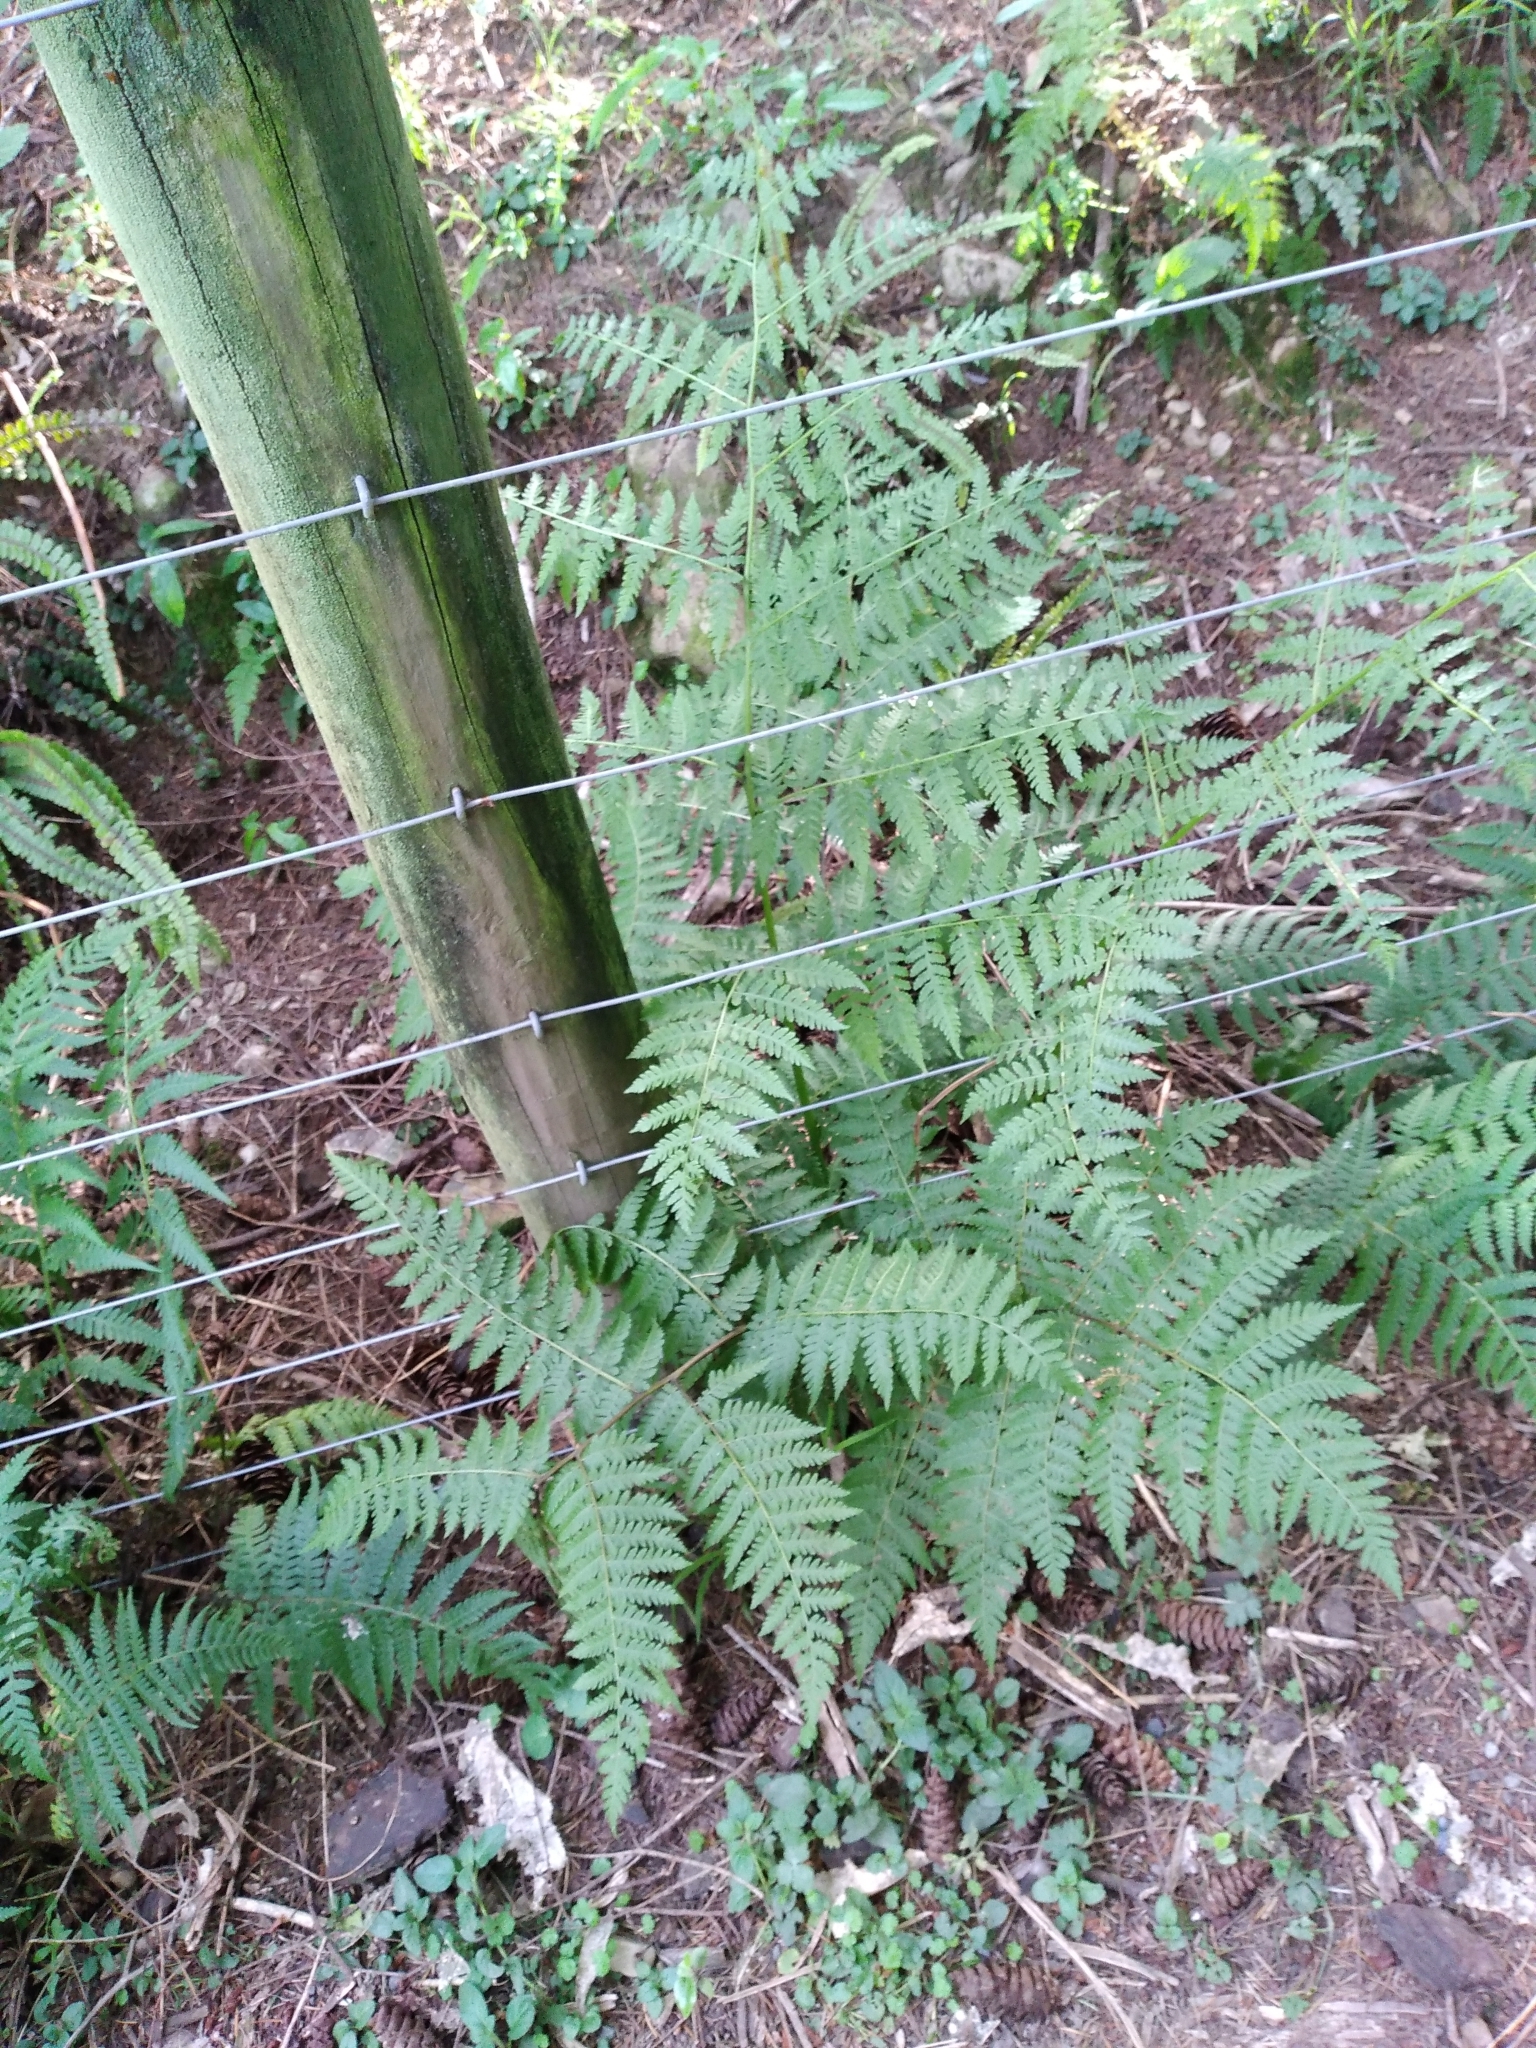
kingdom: Plantae
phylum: Tracheophyta
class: Polypodiopsida
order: Polypodiales
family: Athyriaceae
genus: Diplazium
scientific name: Diplazium australe
